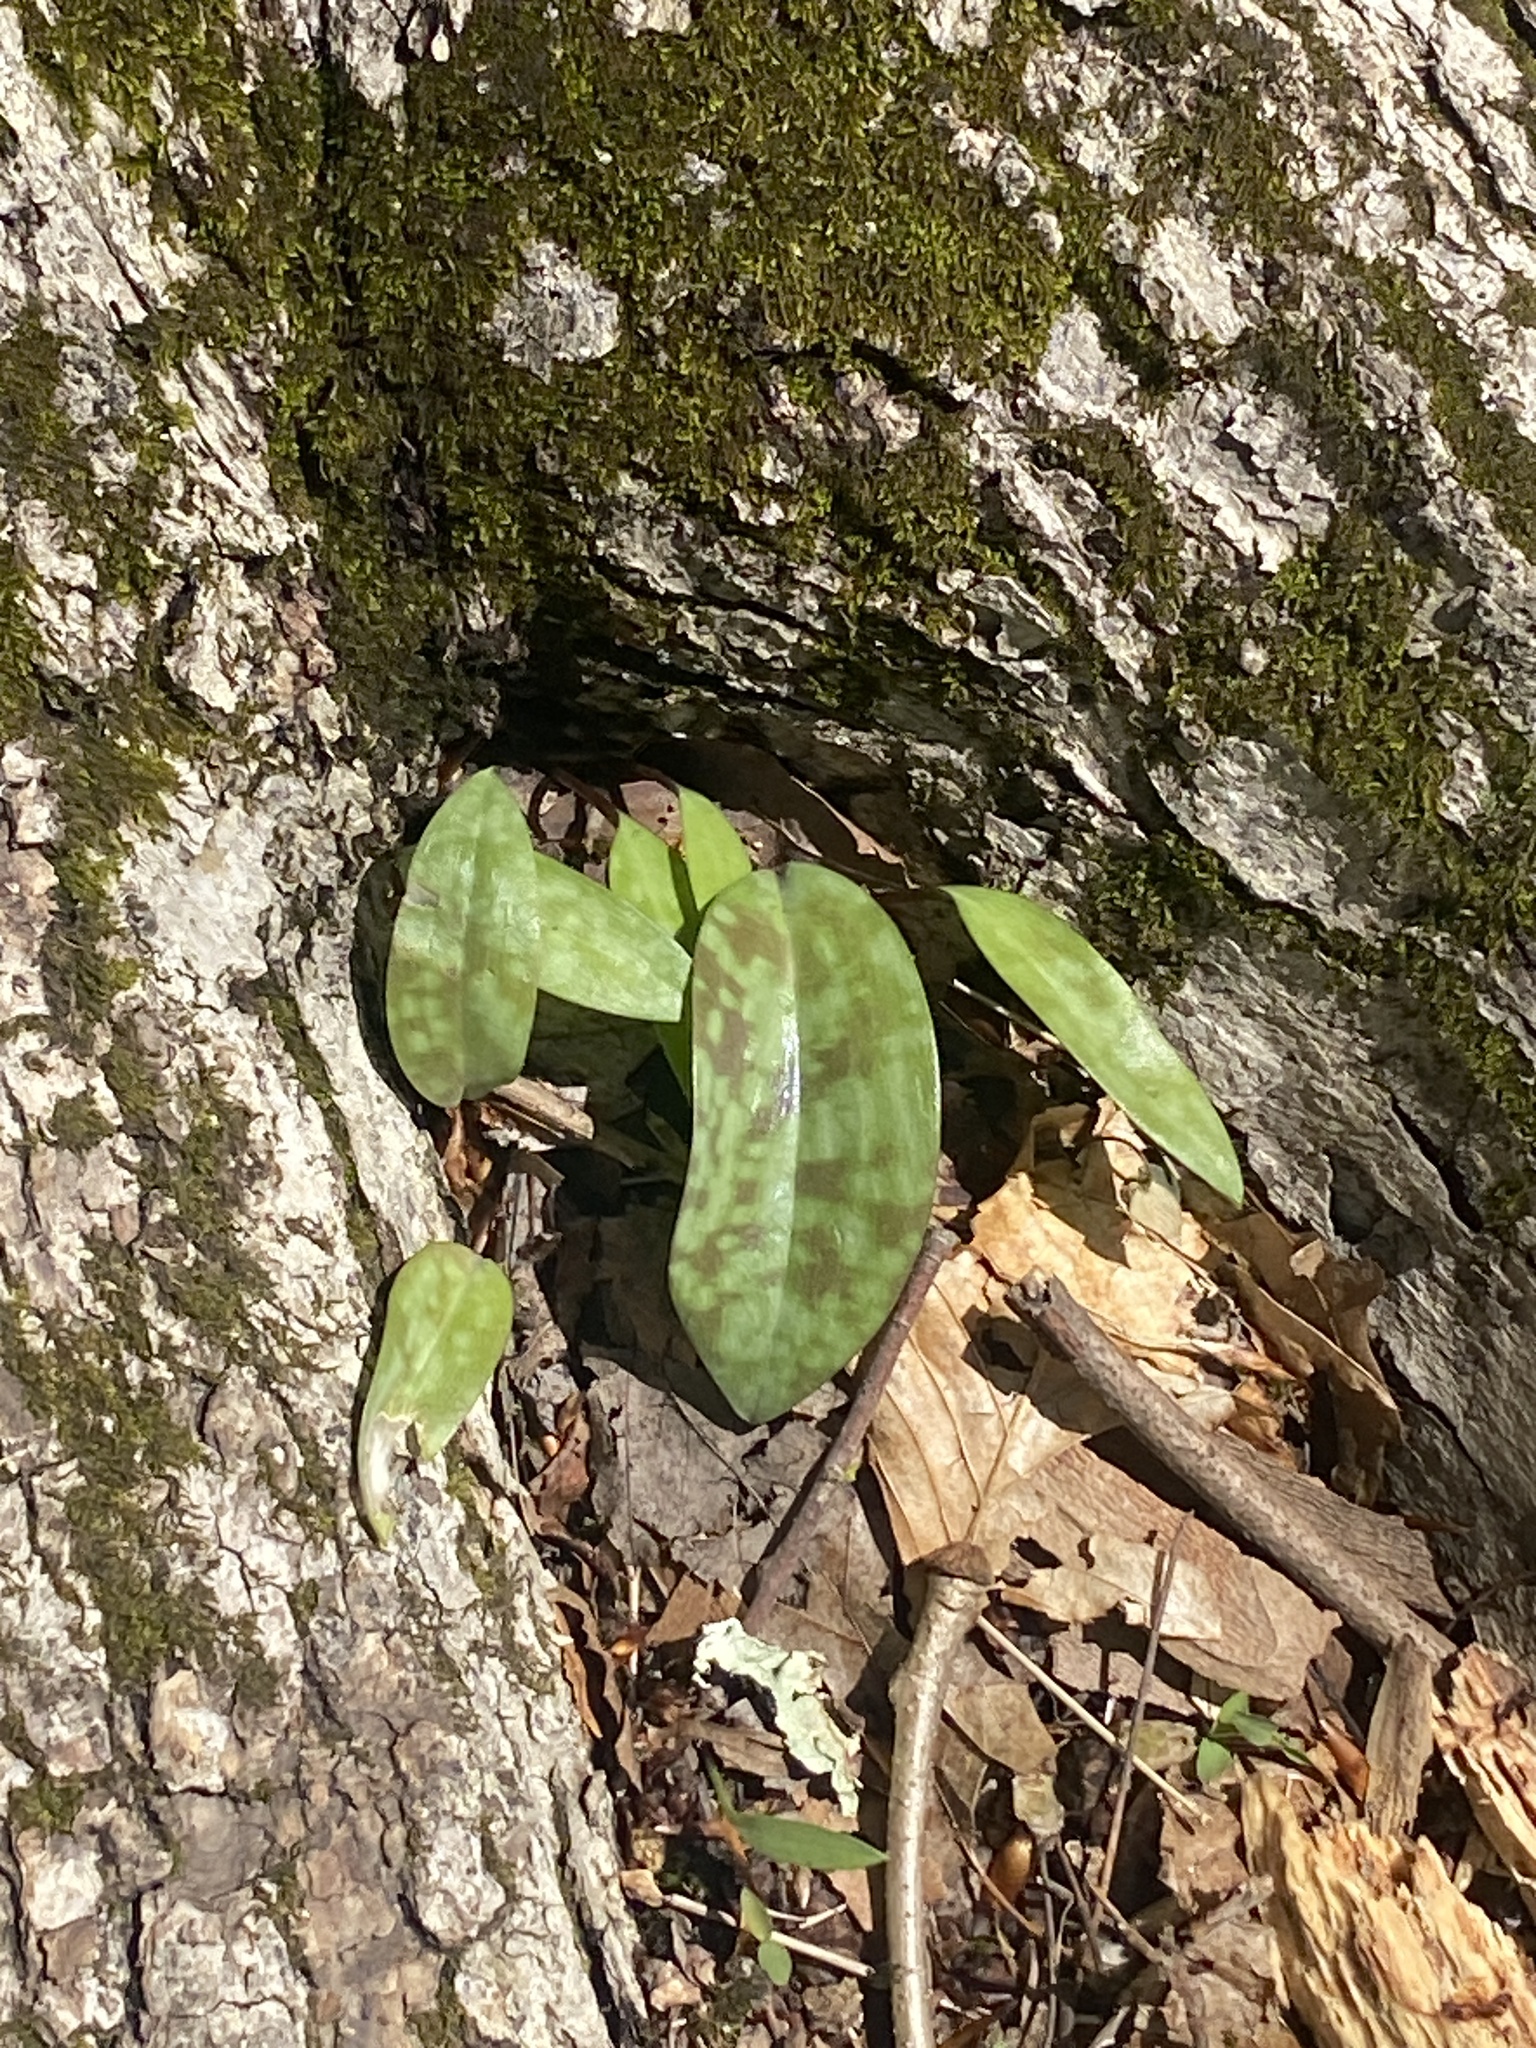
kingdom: Plantae
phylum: Tracheophyta
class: Liliopsida
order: Liliales
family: Liliaceae
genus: Erythronium
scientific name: Erythronium americanum
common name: Yellow adder's-tongue
